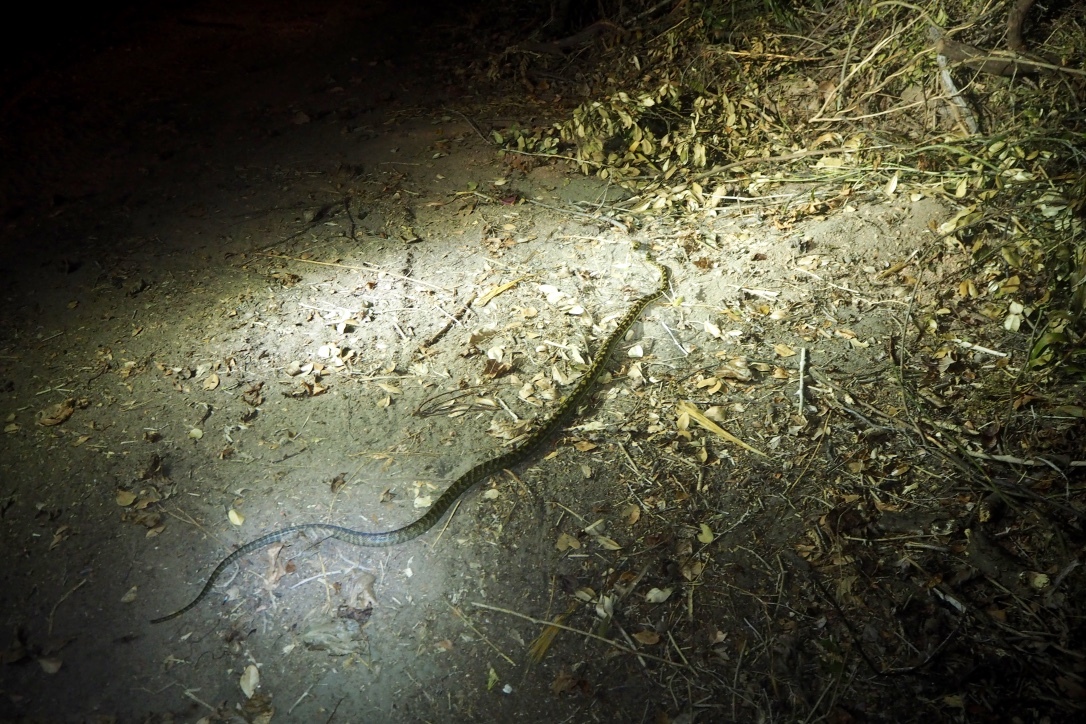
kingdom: Animalia
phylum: Chordata
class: Squamata
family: Pythonidae
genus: Simalia
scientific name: Simalia kinghorni
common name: Scrub python
